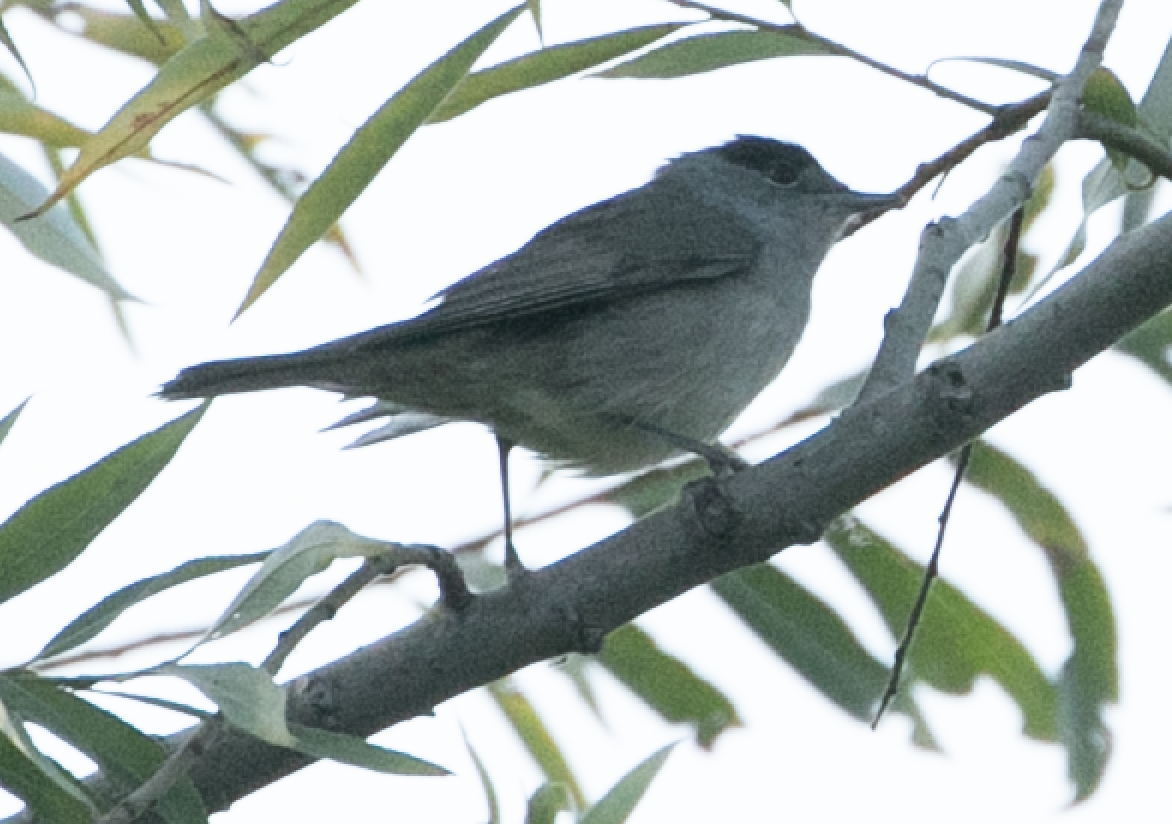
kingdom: Animalia
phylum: Chordata
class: Aves
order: Passeriformes
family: Sylviidae
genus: Sylvia
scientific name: Sylvia atricapilla
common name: Eurasian blackcap
